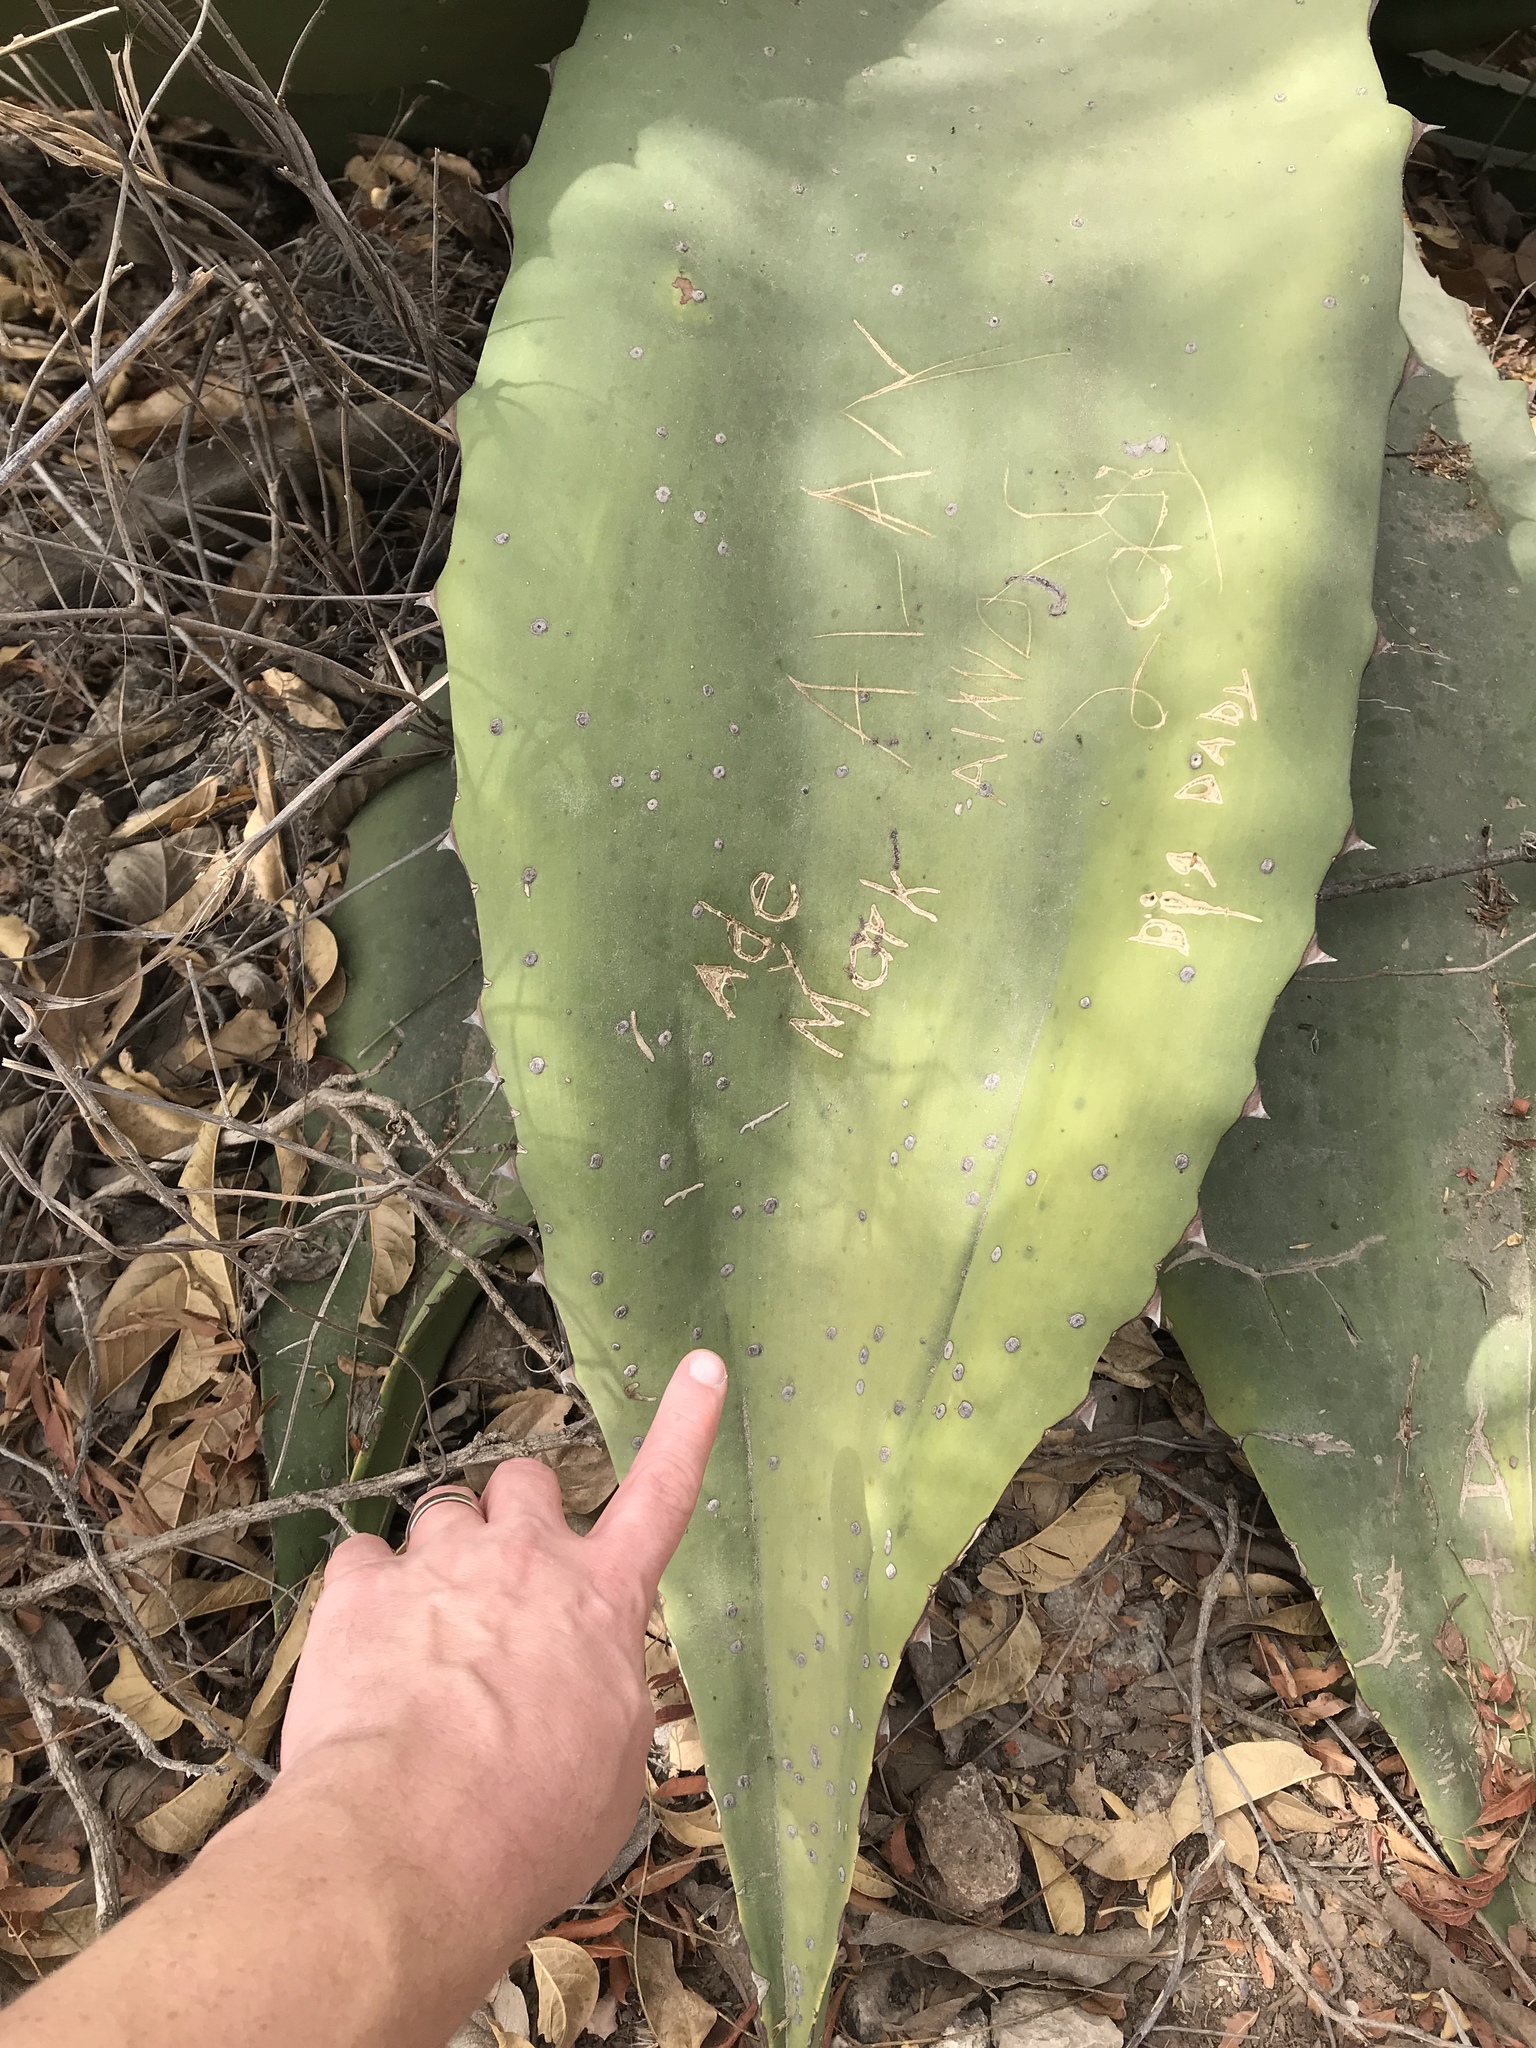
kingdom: Plantae
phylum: Tracheophyta
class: Liliopsida
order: Asparagales
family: Asparagaceae
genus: Agave
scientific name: Agave marmorata
